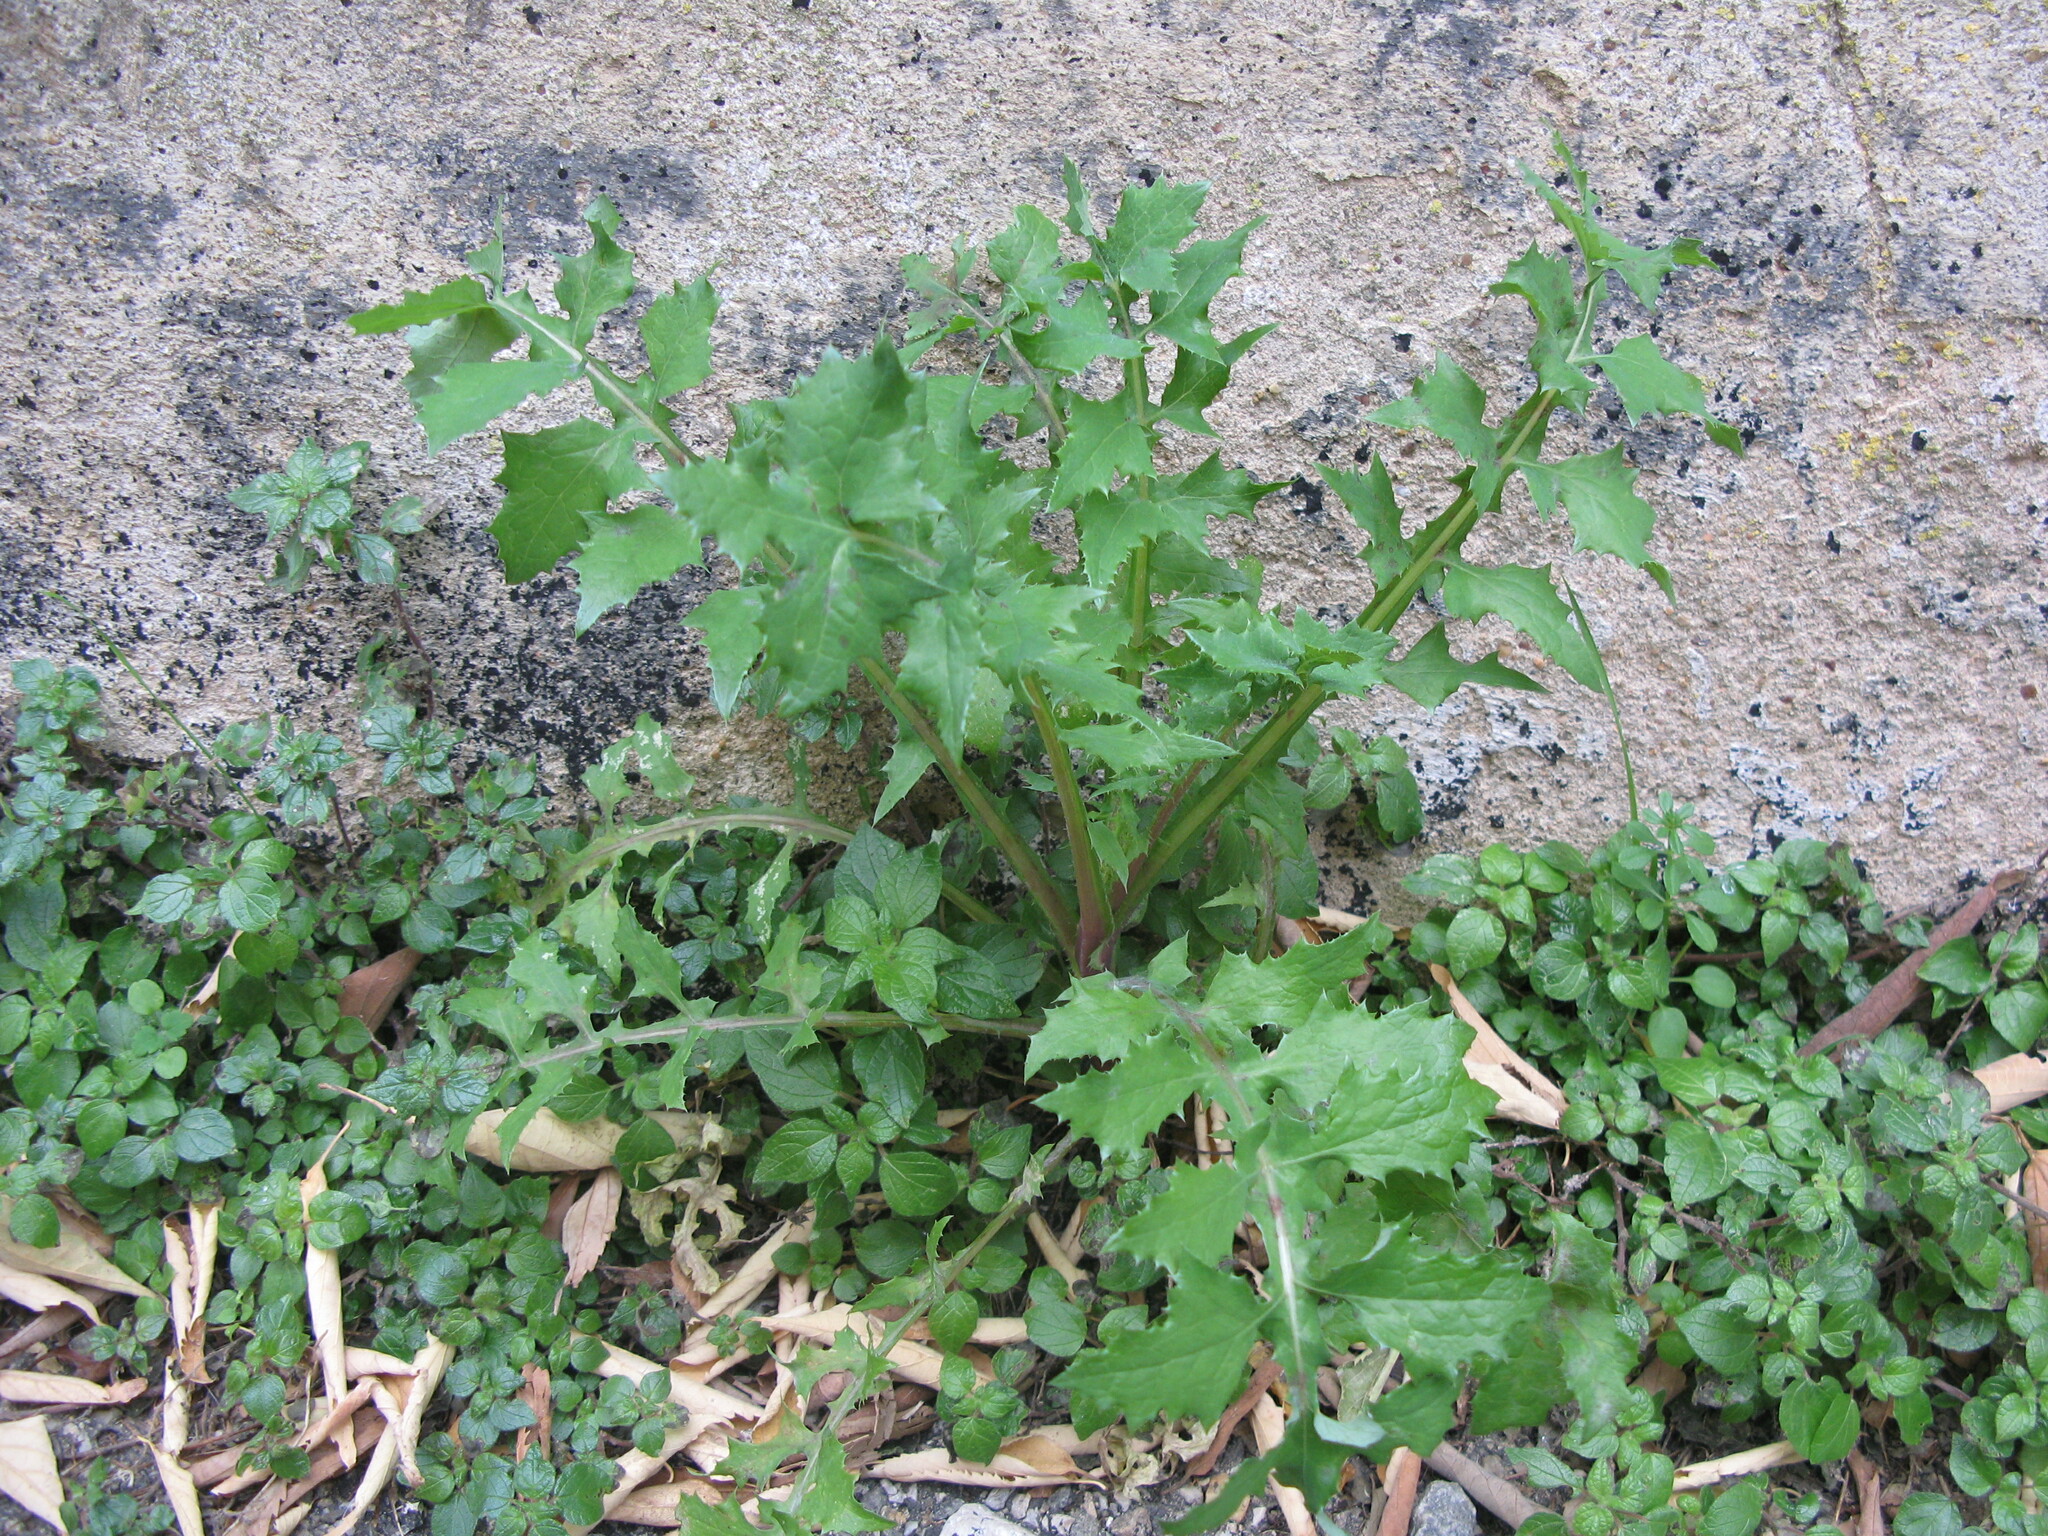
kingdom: Plantae
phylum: Tracheophyta
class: Magnoliopsida
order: Asterales
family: Asteraceae
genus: Sonchus
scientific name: Sonchus oleraceus
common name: Common sowthistle
